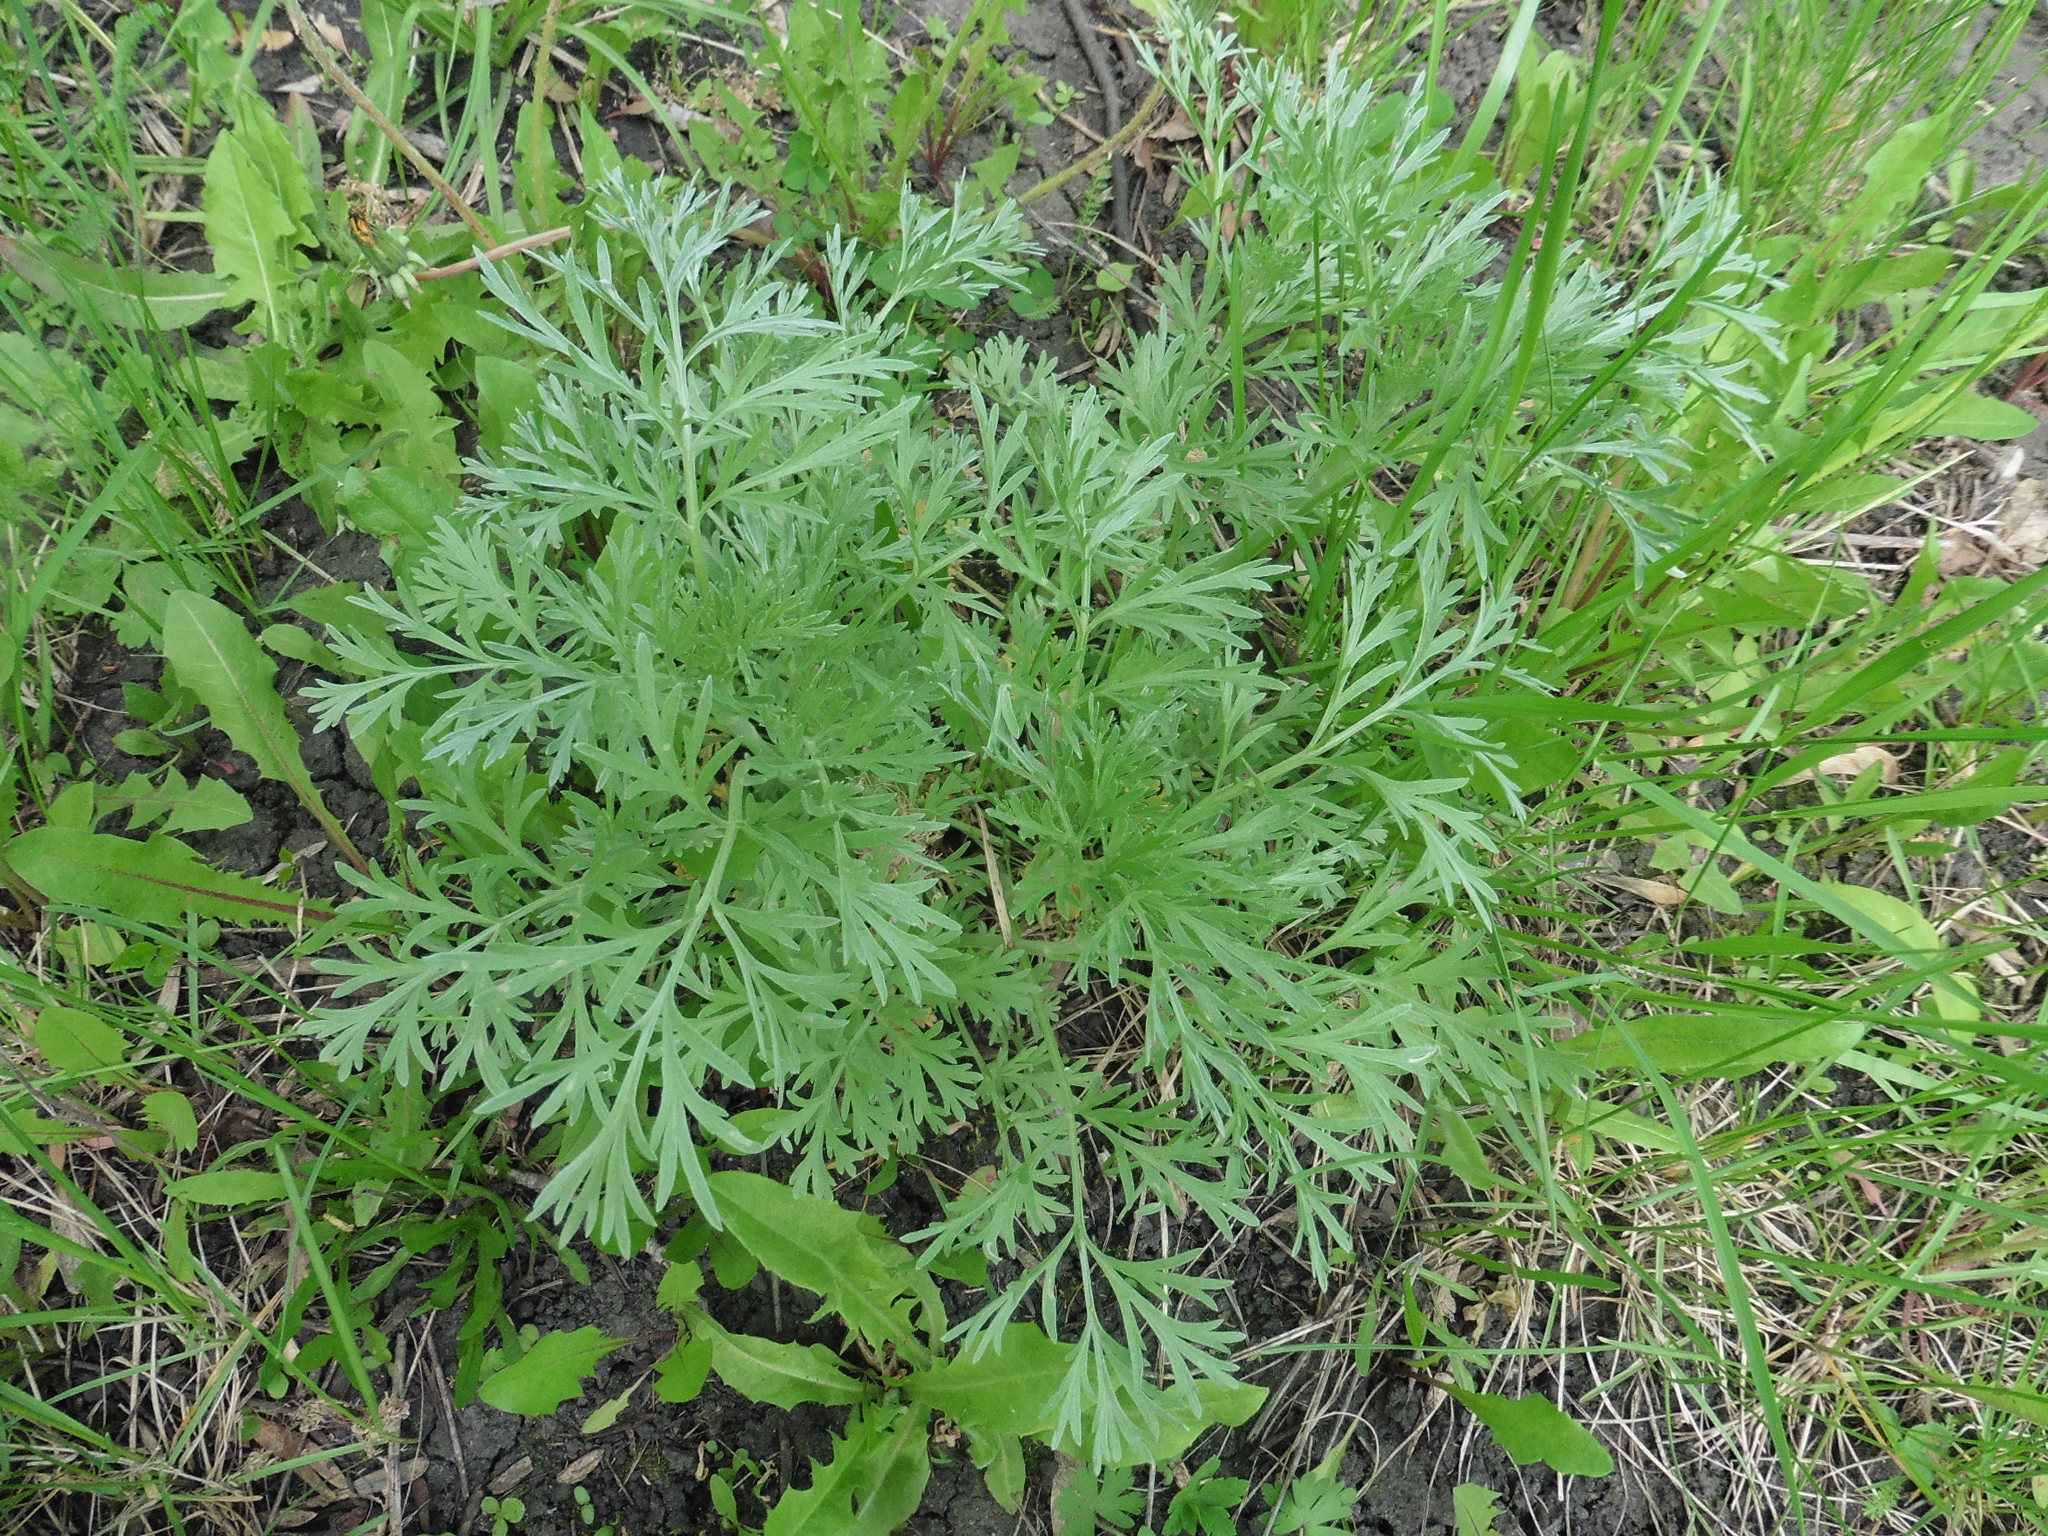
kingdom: Plantae
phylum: Tracheophyta
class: Magnoliopsida
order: Asterales
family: Asteraceae
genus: Artemisia
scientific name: Artemisia absinthium
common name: Wormwood
